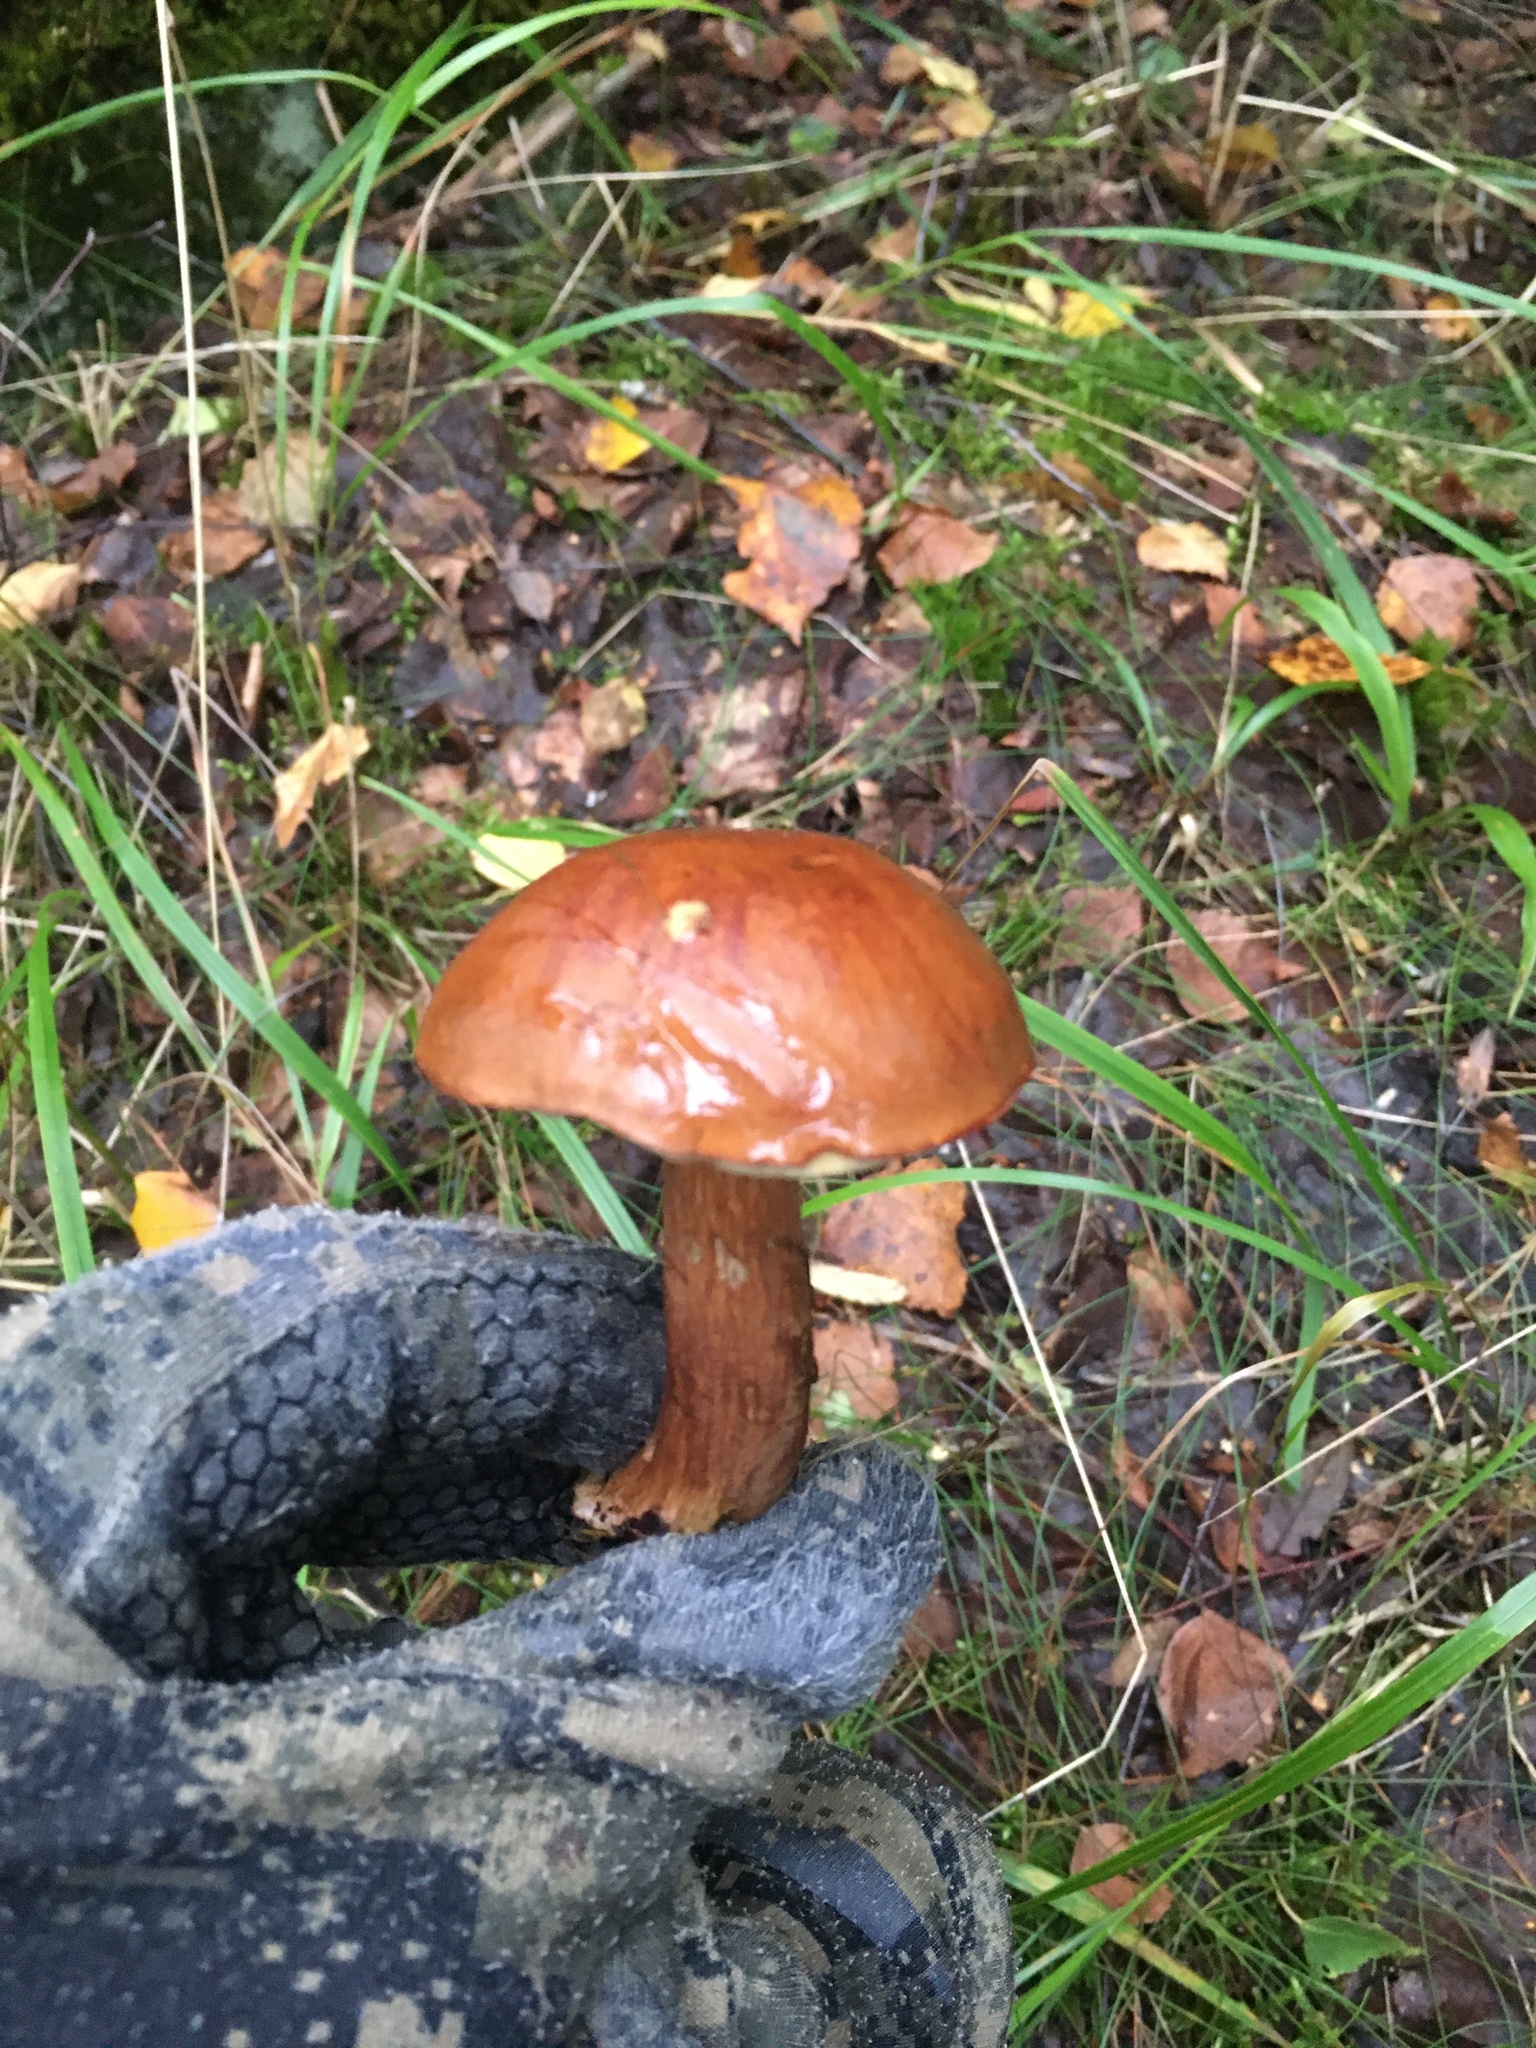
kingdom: Fungi
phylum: Basidiomycota
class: Agaricomycetes
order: Boletales
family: Boletaceae
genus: Imleria
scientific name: Imleria badia
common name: Bay bolete
